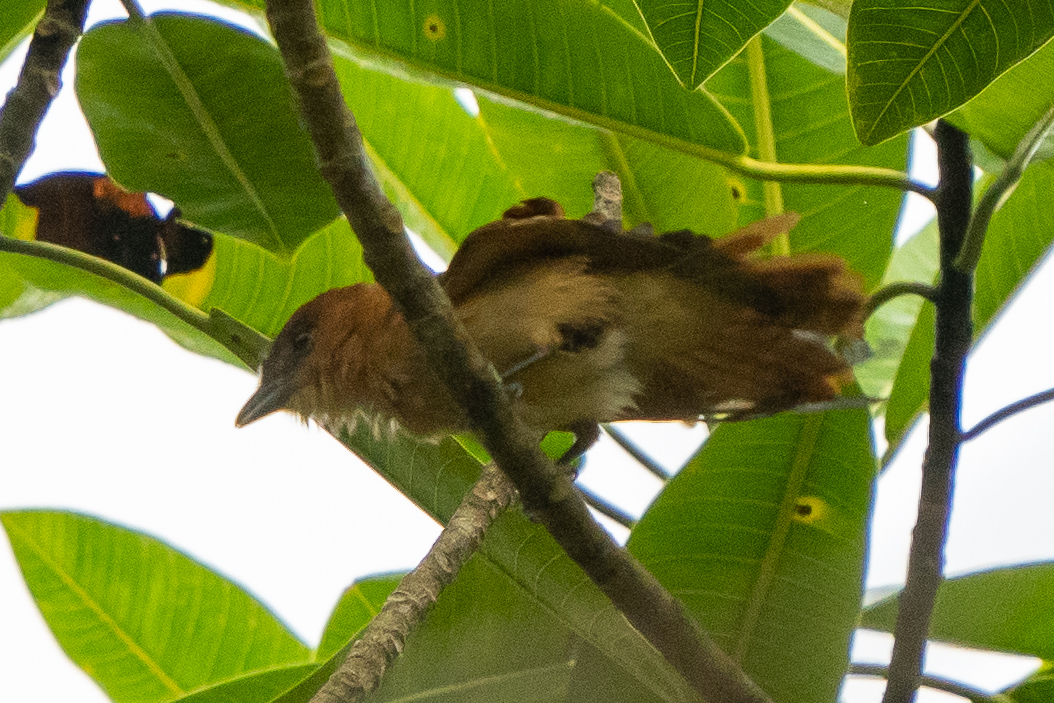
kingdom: Animalia
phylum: Chordata
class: Aves
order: Passeriformes
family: Cotingidae
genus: Pachyramphus
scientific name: Pachyramphus cinnamomeus
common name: Cinnamon becard
